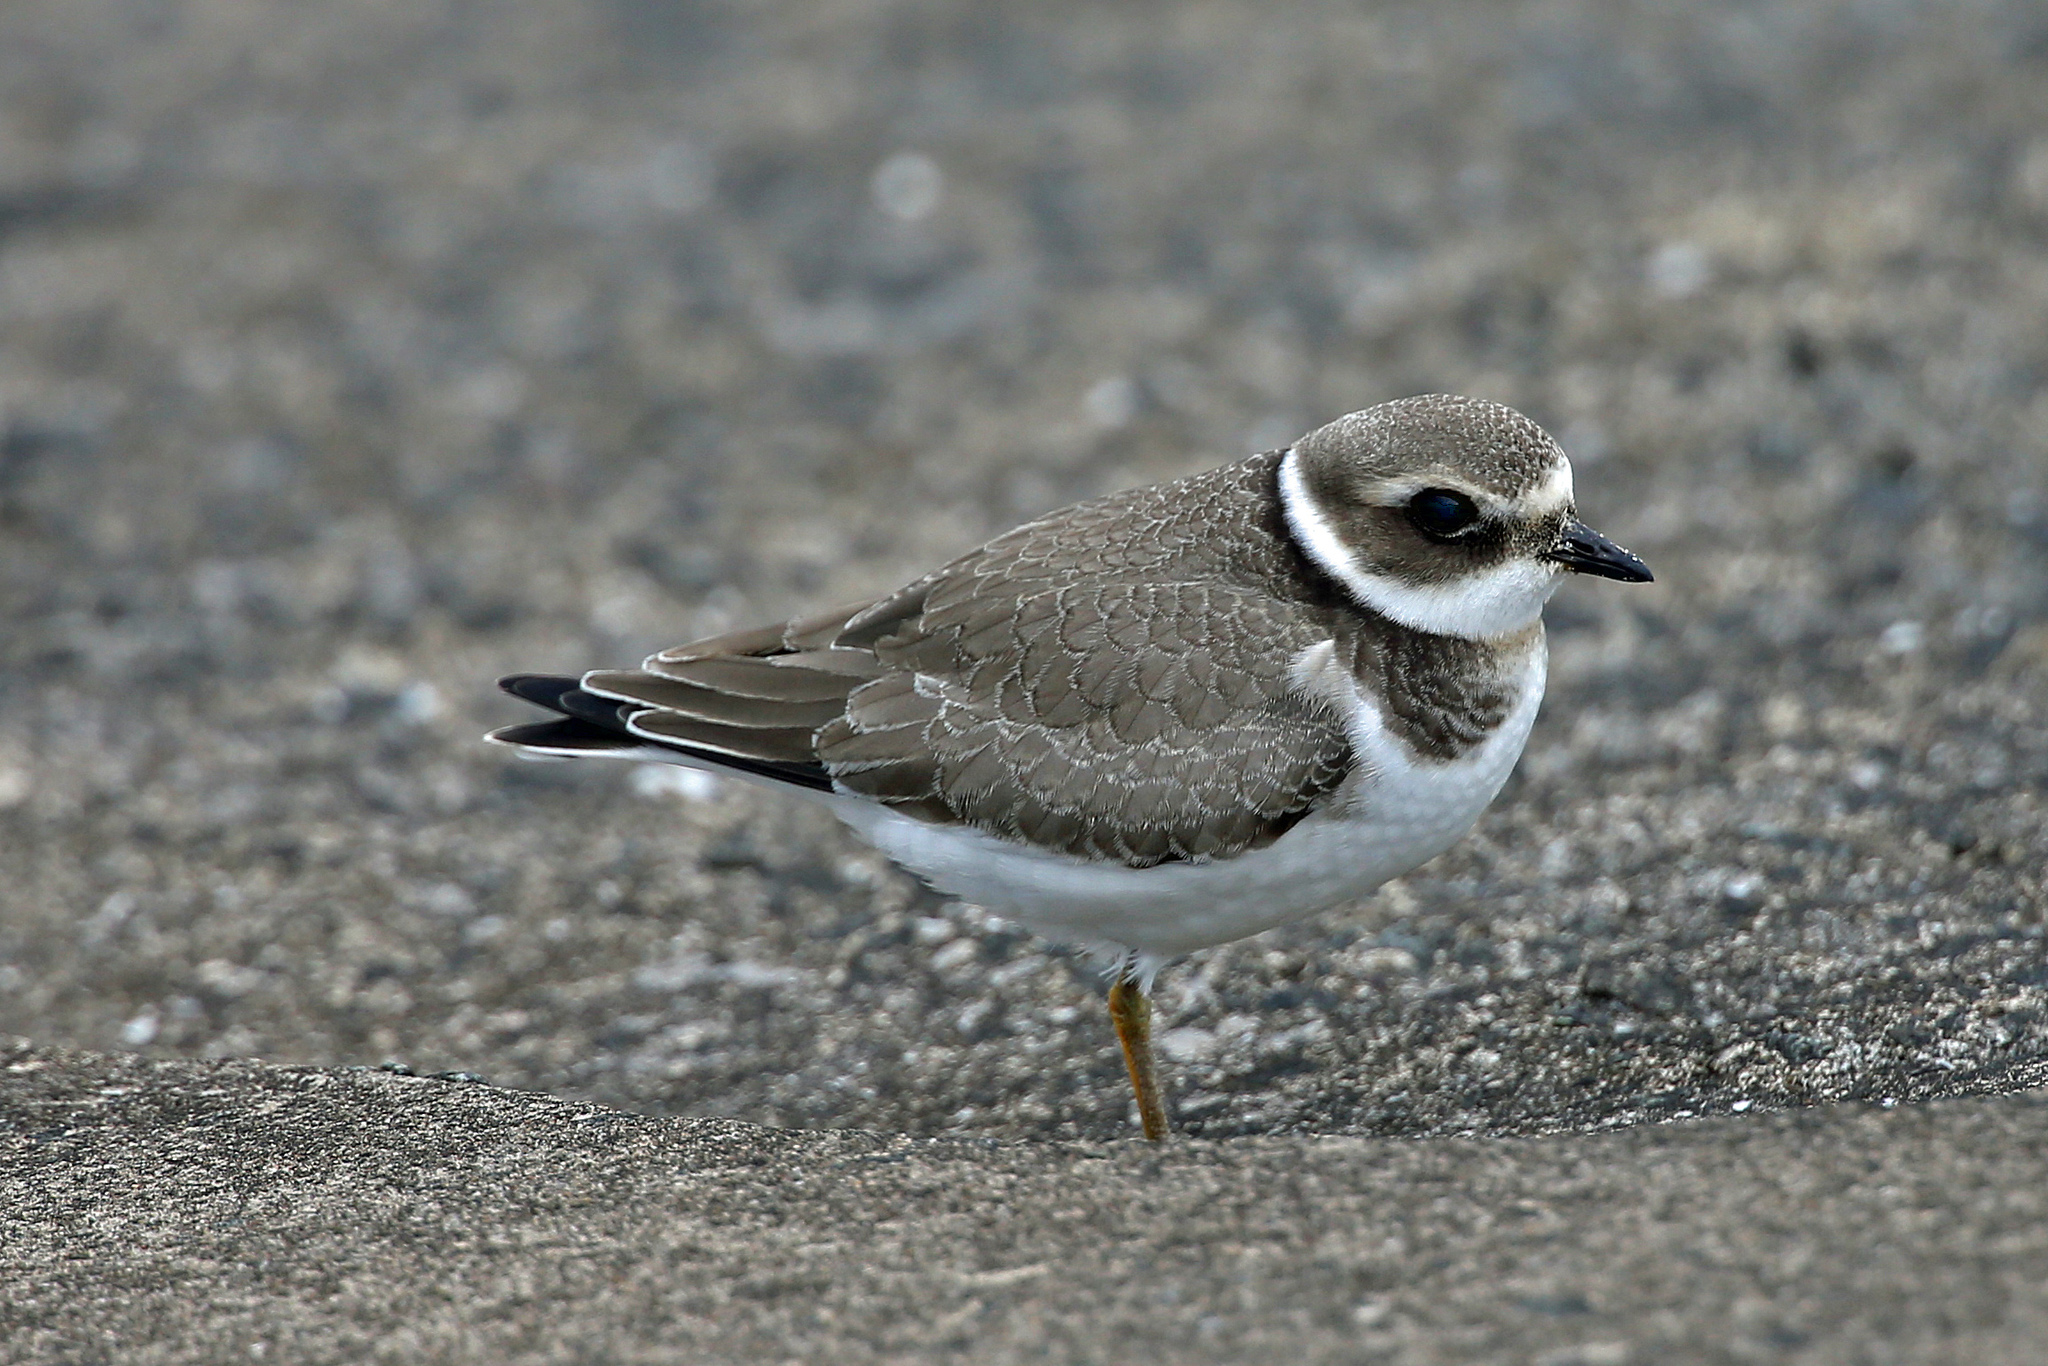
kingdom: Animalia
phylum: Chordata
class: Aves
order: Charadriiformes
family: Charadriidae
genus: Charadrius
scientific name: Charadrius hiaticula
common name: Common ringed plover
